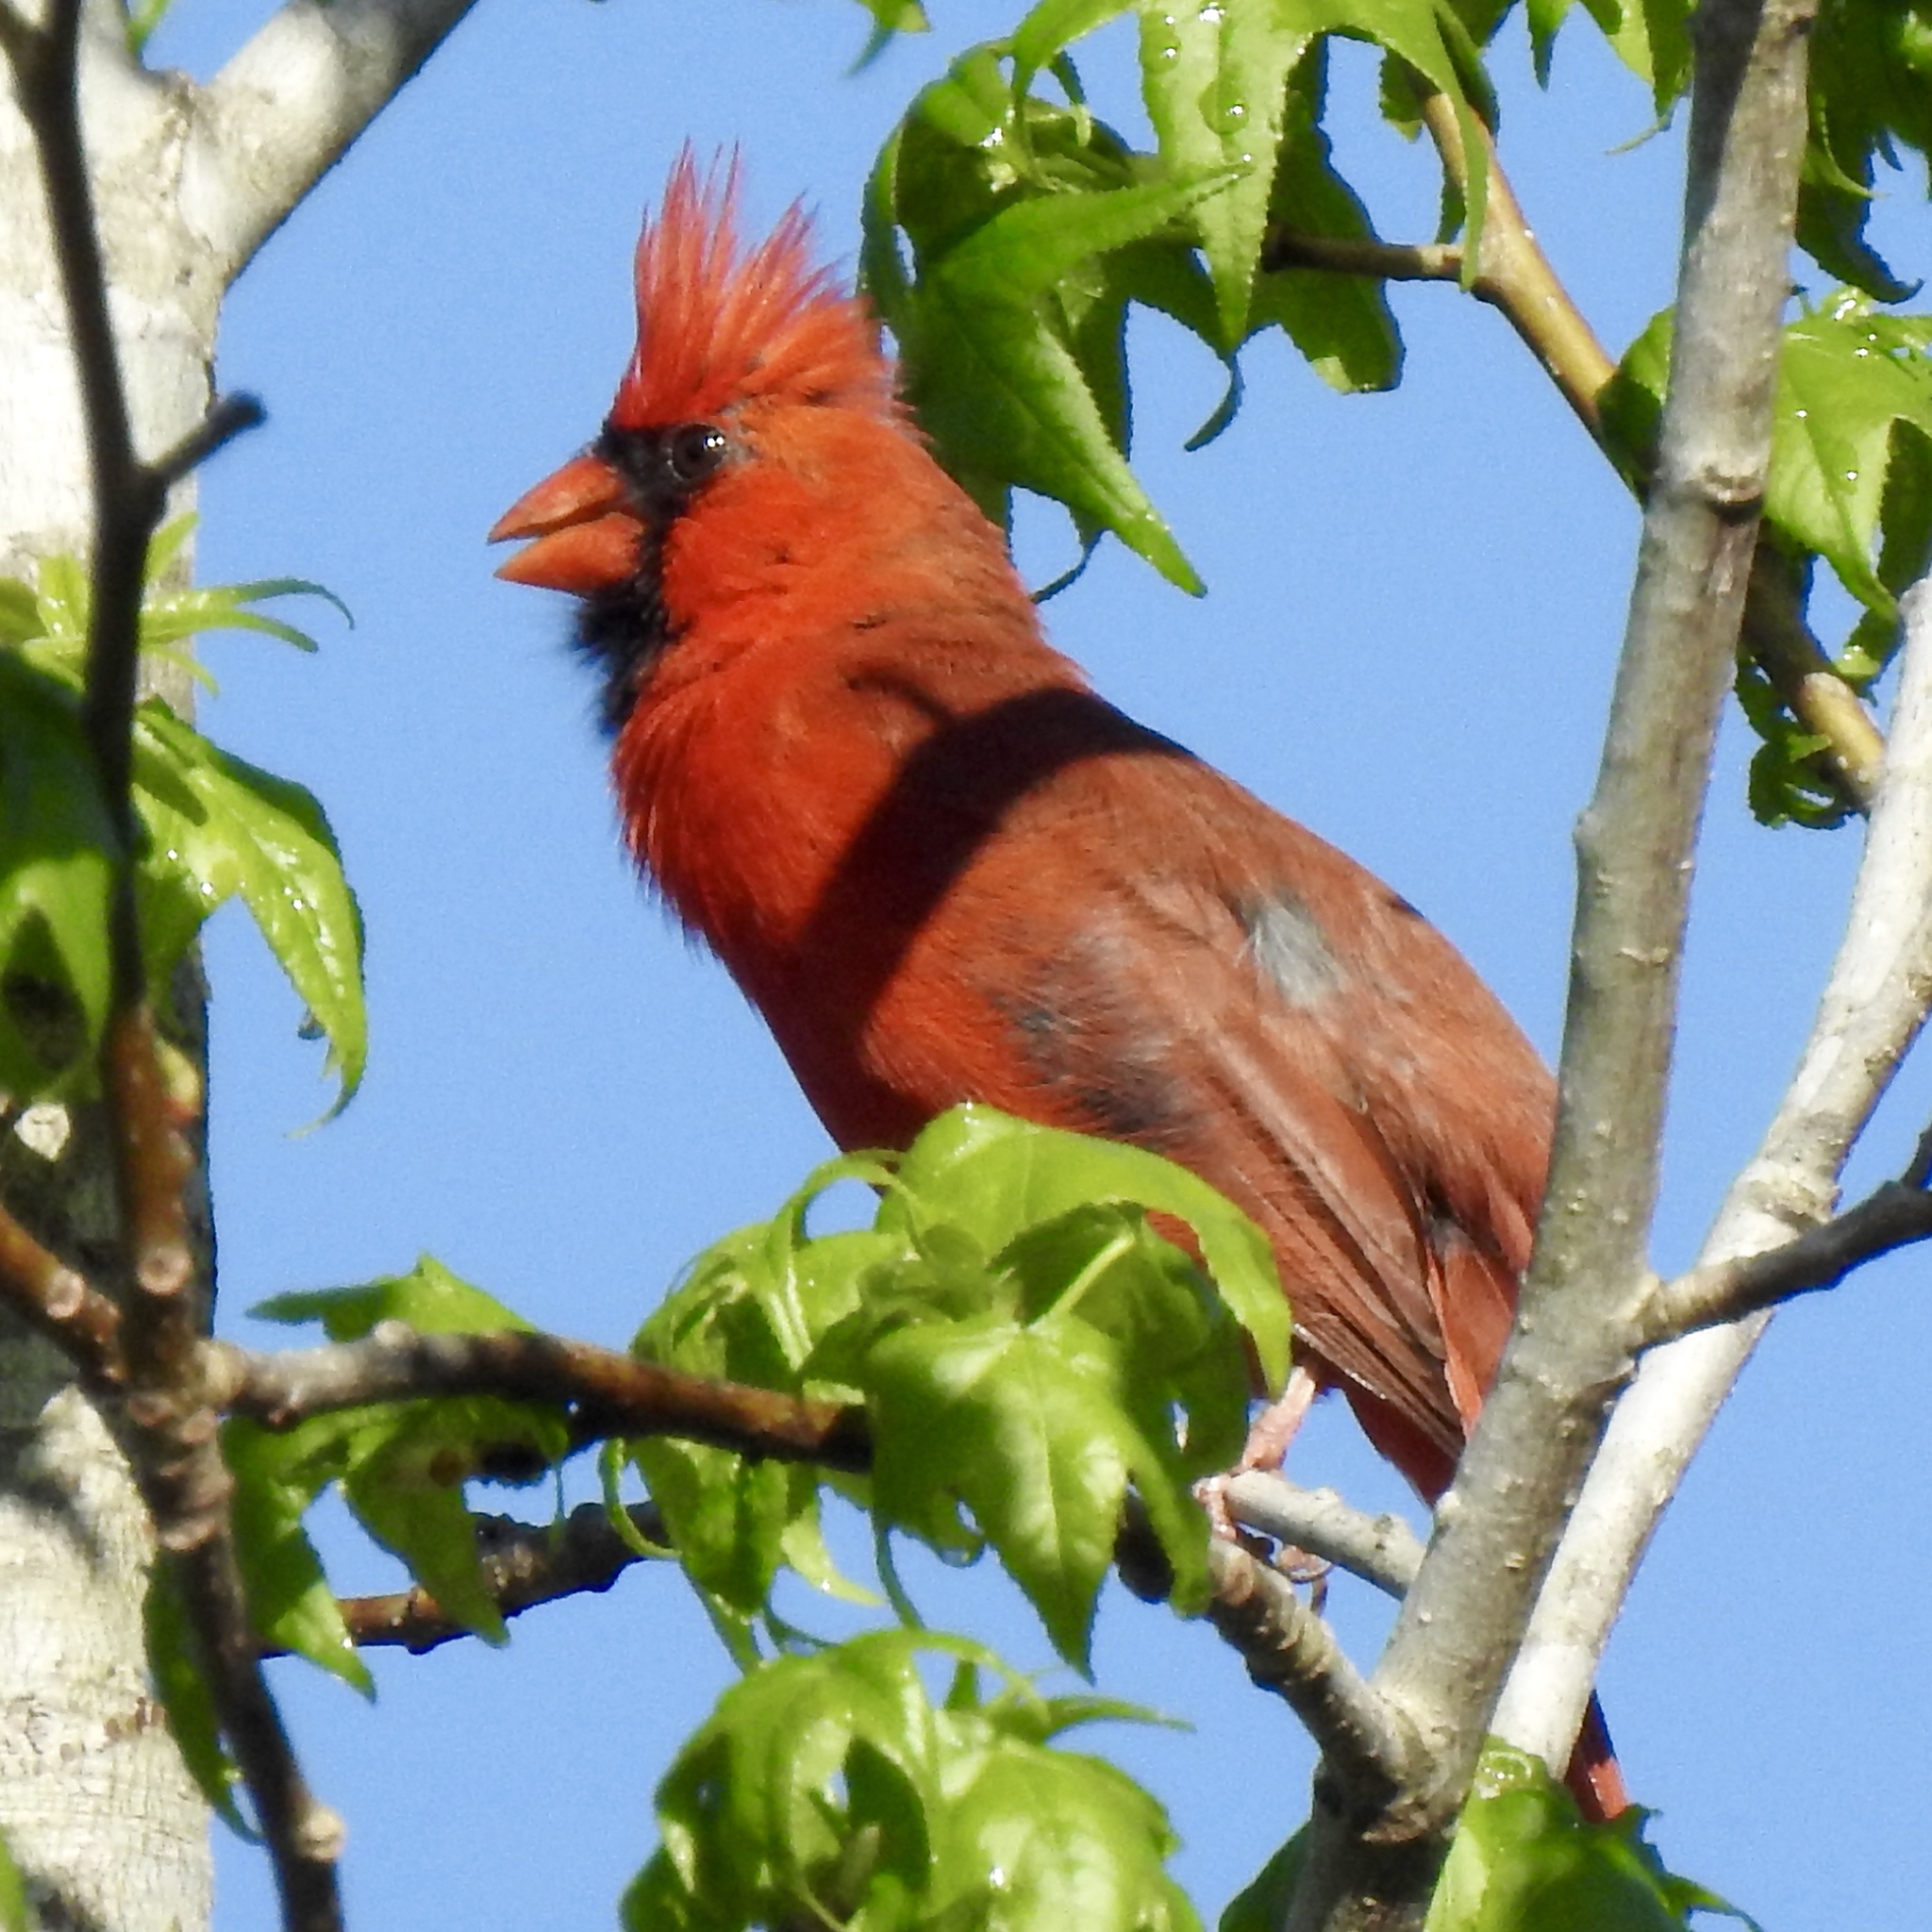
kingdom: Animalia
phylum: Chordata
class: Aves
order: Passeriformes
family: Cardinalidae
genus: Cardinalis
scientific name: Cardinalis cardinalis
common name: Northern cardinal
